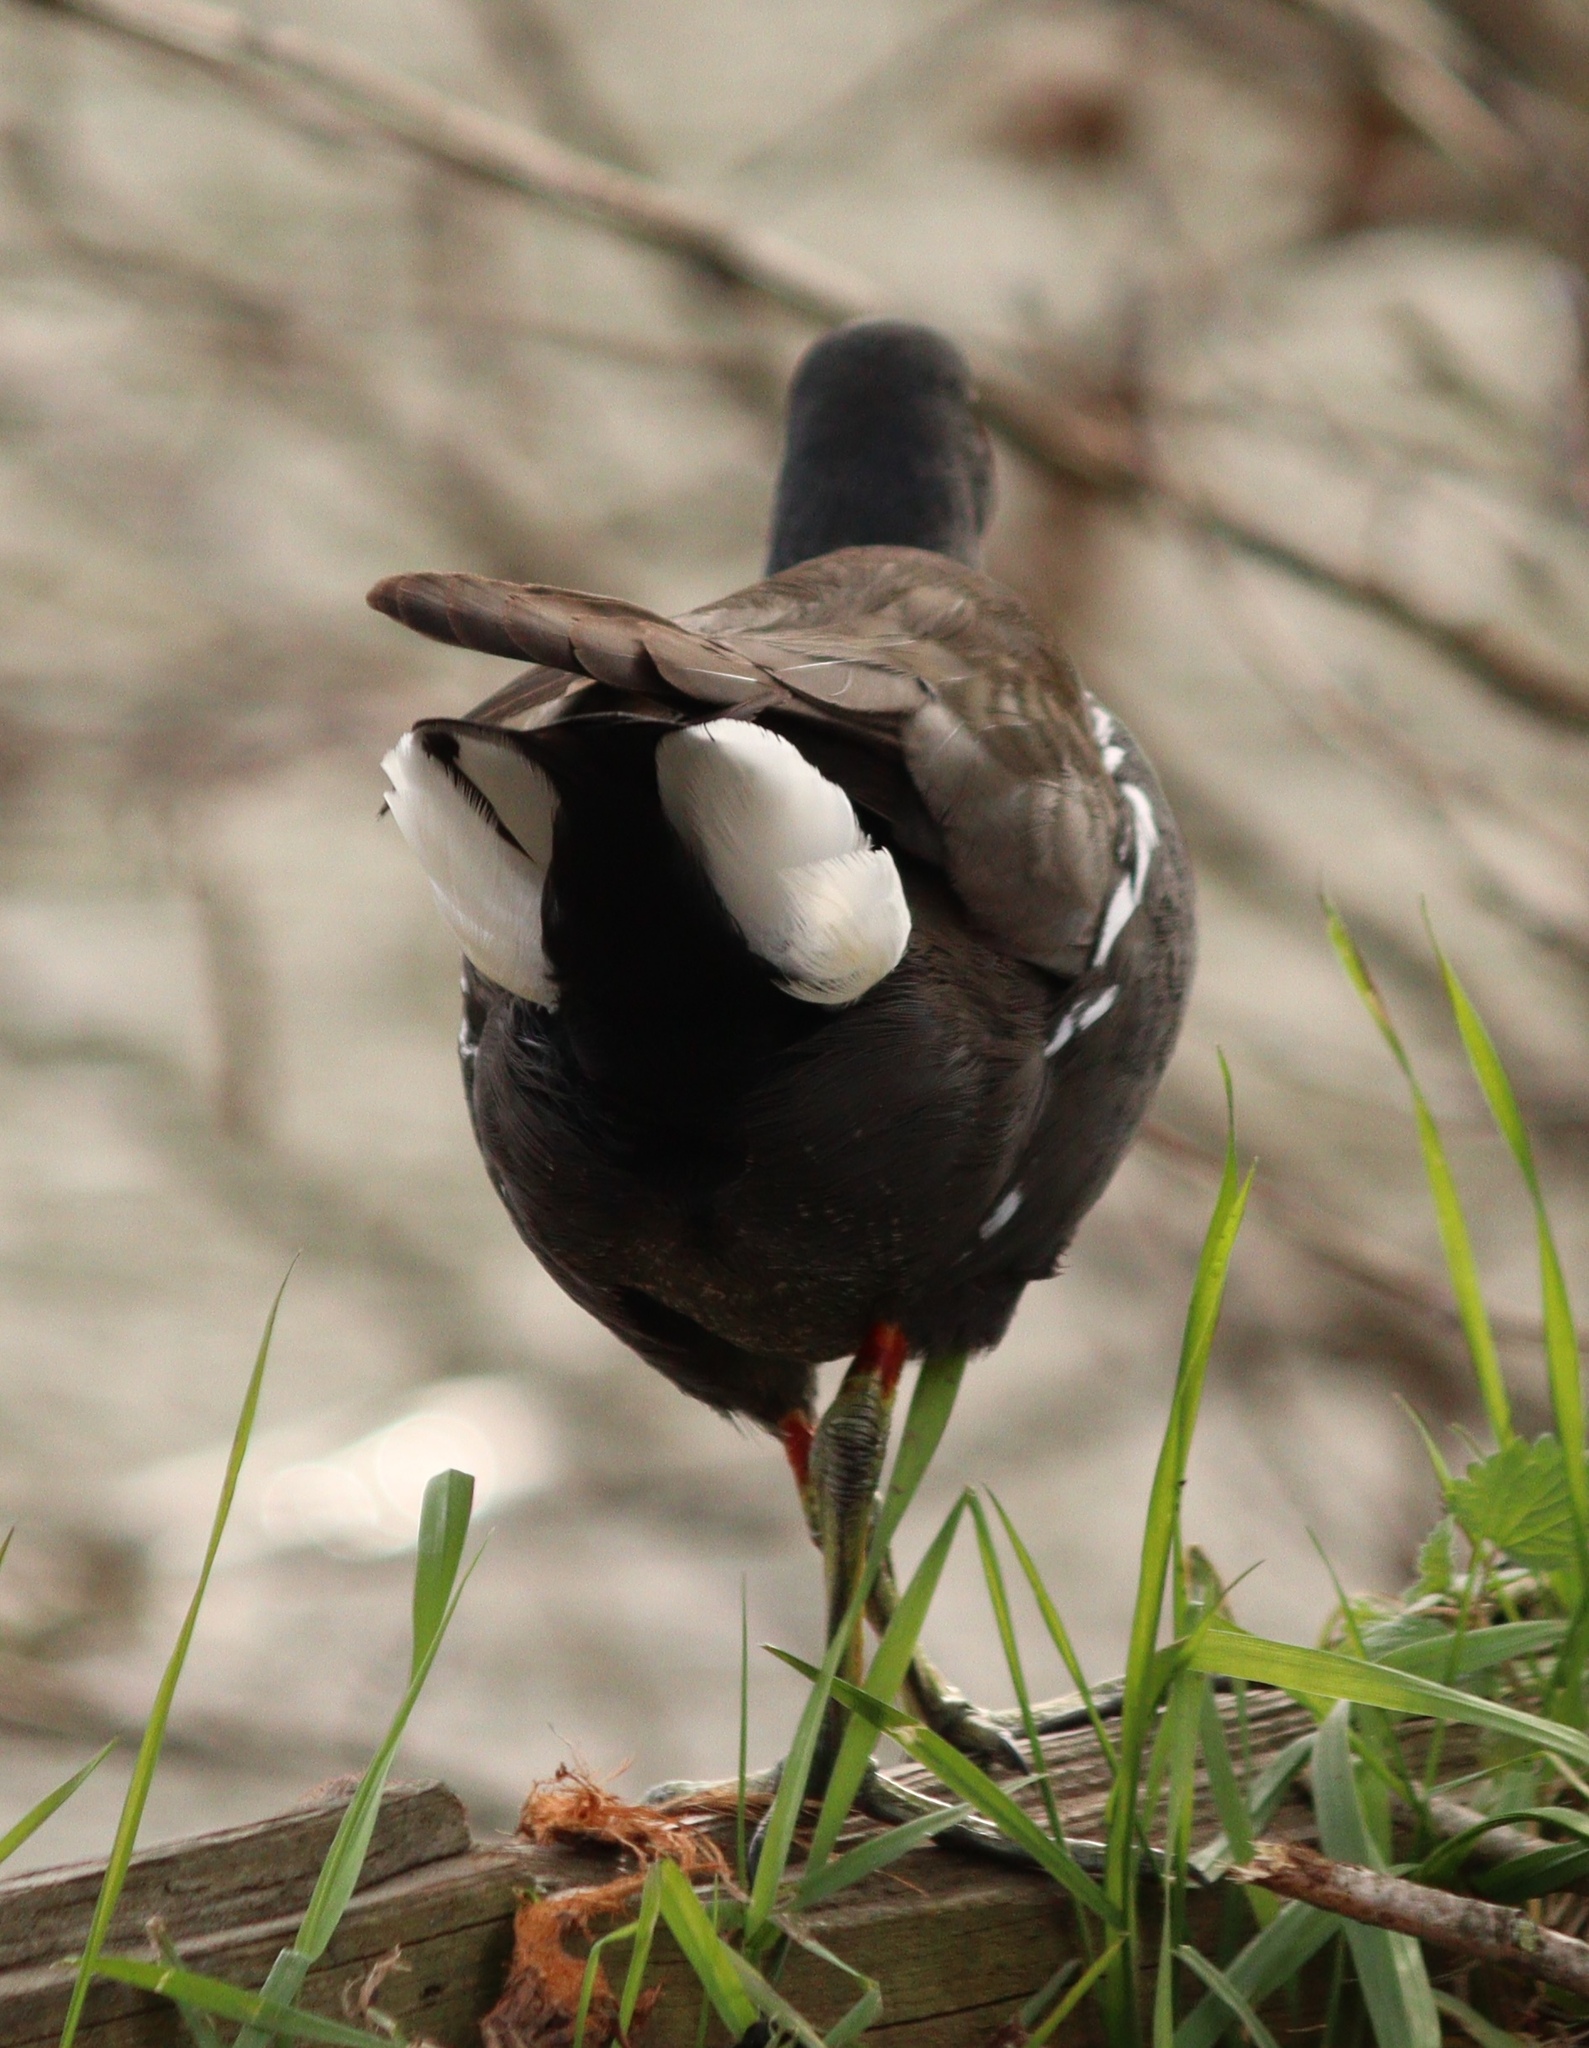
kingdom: Animalia
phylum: Chordata
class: Aves
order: Gruiformes
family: Rallidae
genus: Gallinula
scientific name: Gallinula chloropus
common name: Common moorhen
